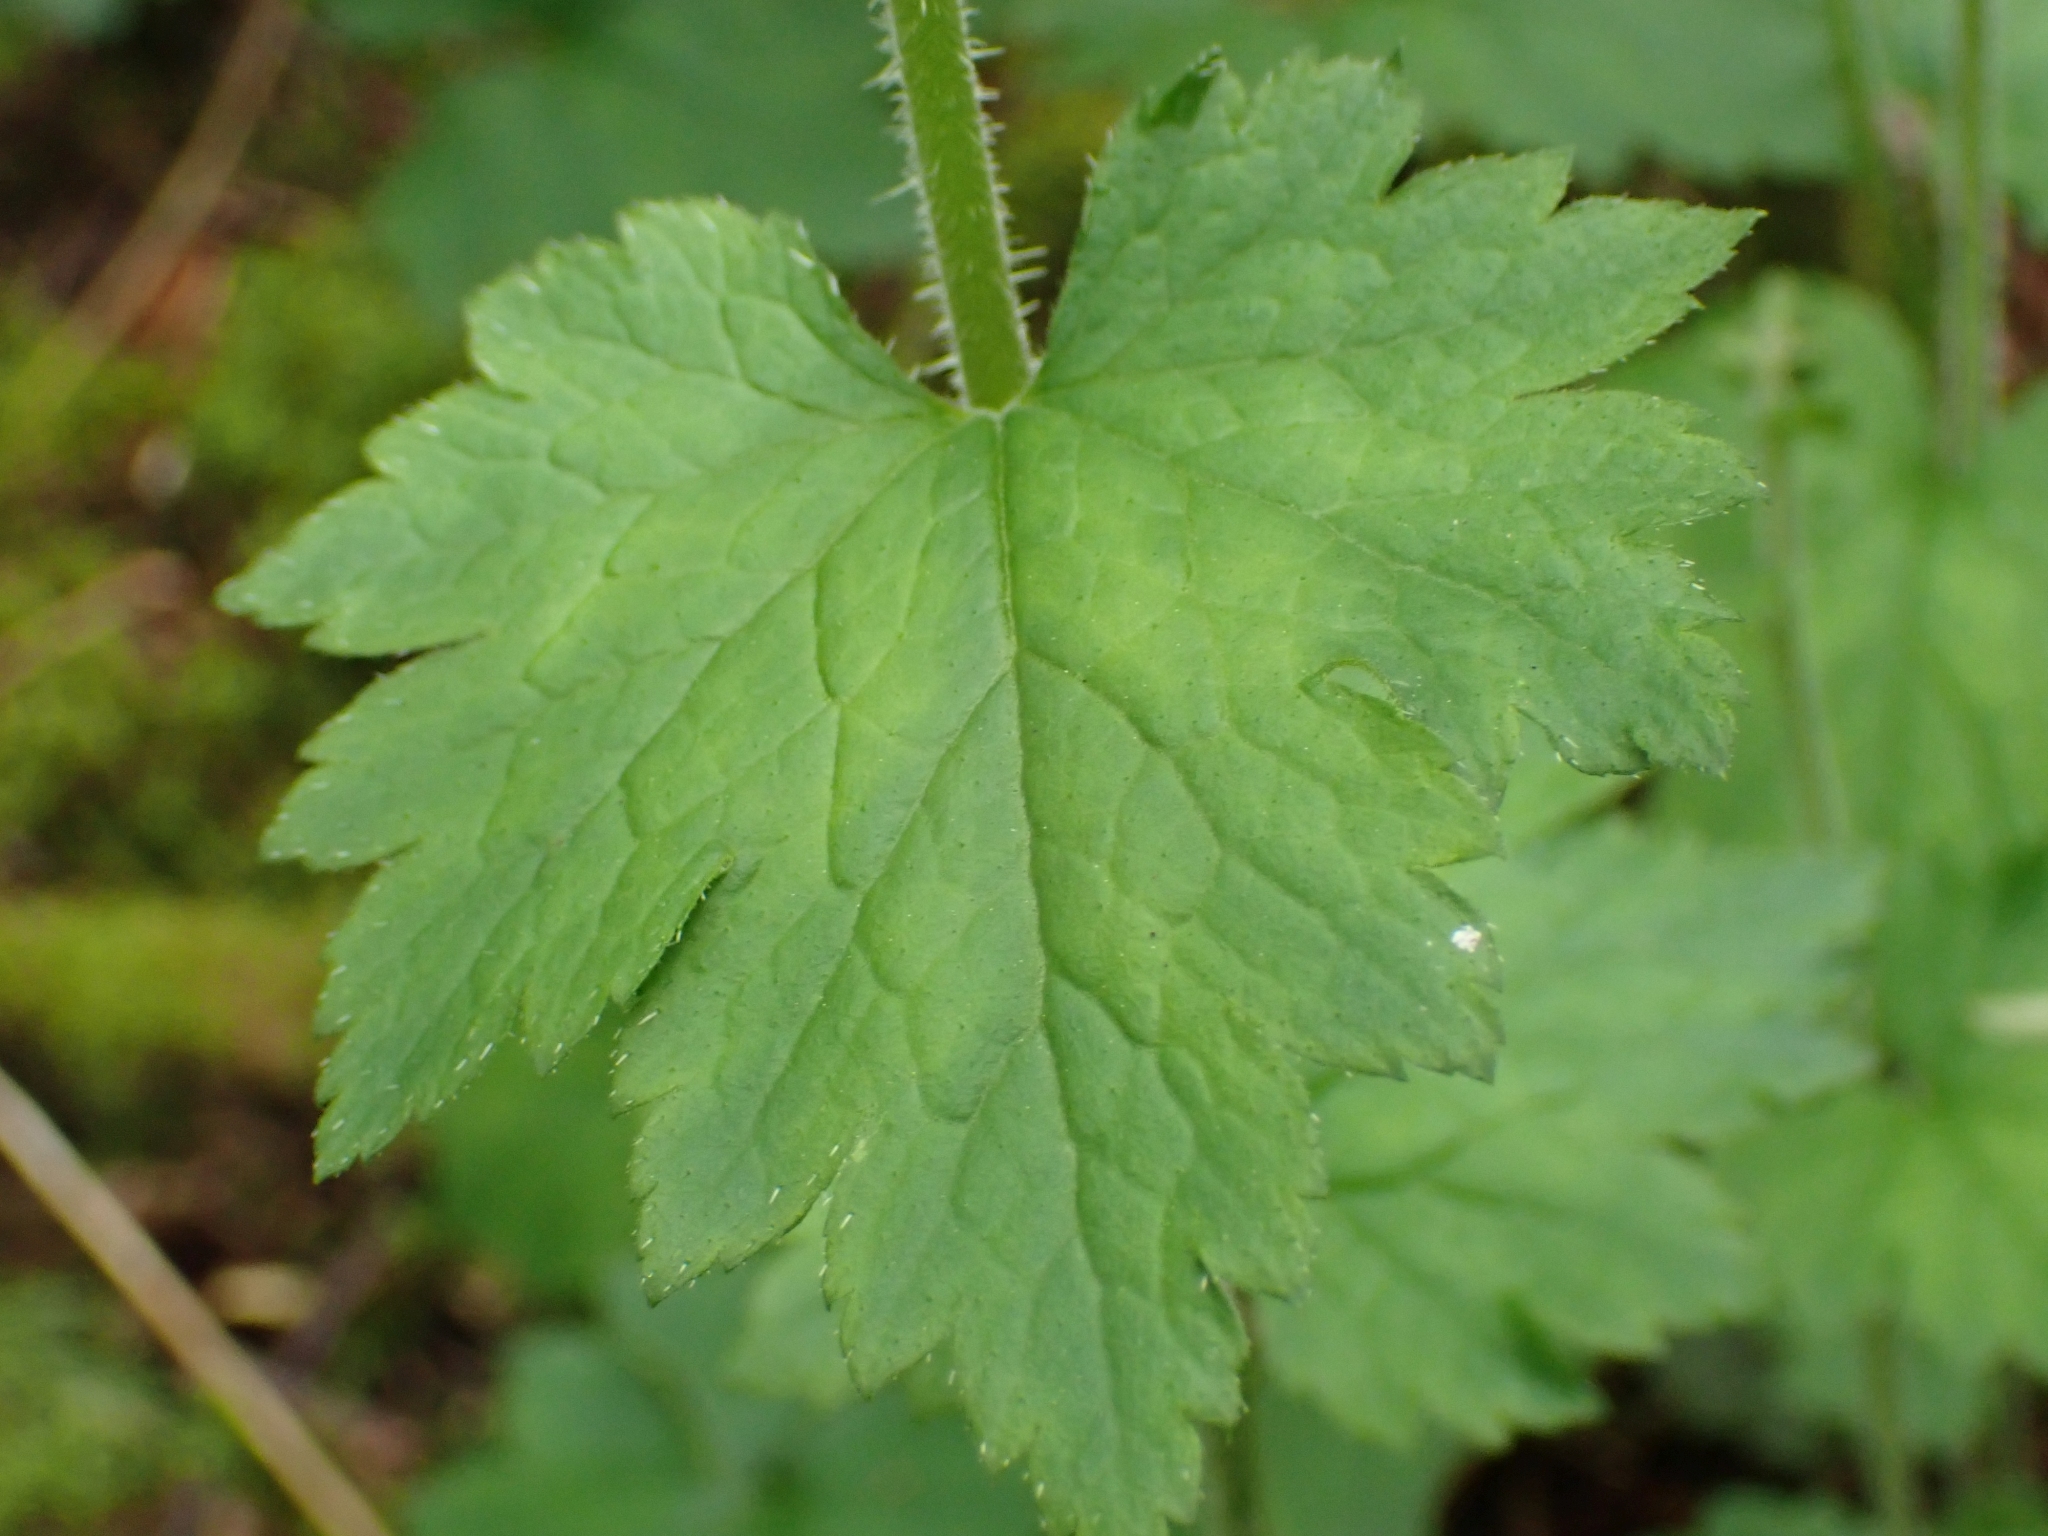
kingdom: Plantae
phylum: Tracheophyta
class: Magnoliopsida
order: Saxifragales
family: Saxifragaceae
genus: Tellima
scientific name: Tellima grandiflora
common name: Fringecups
